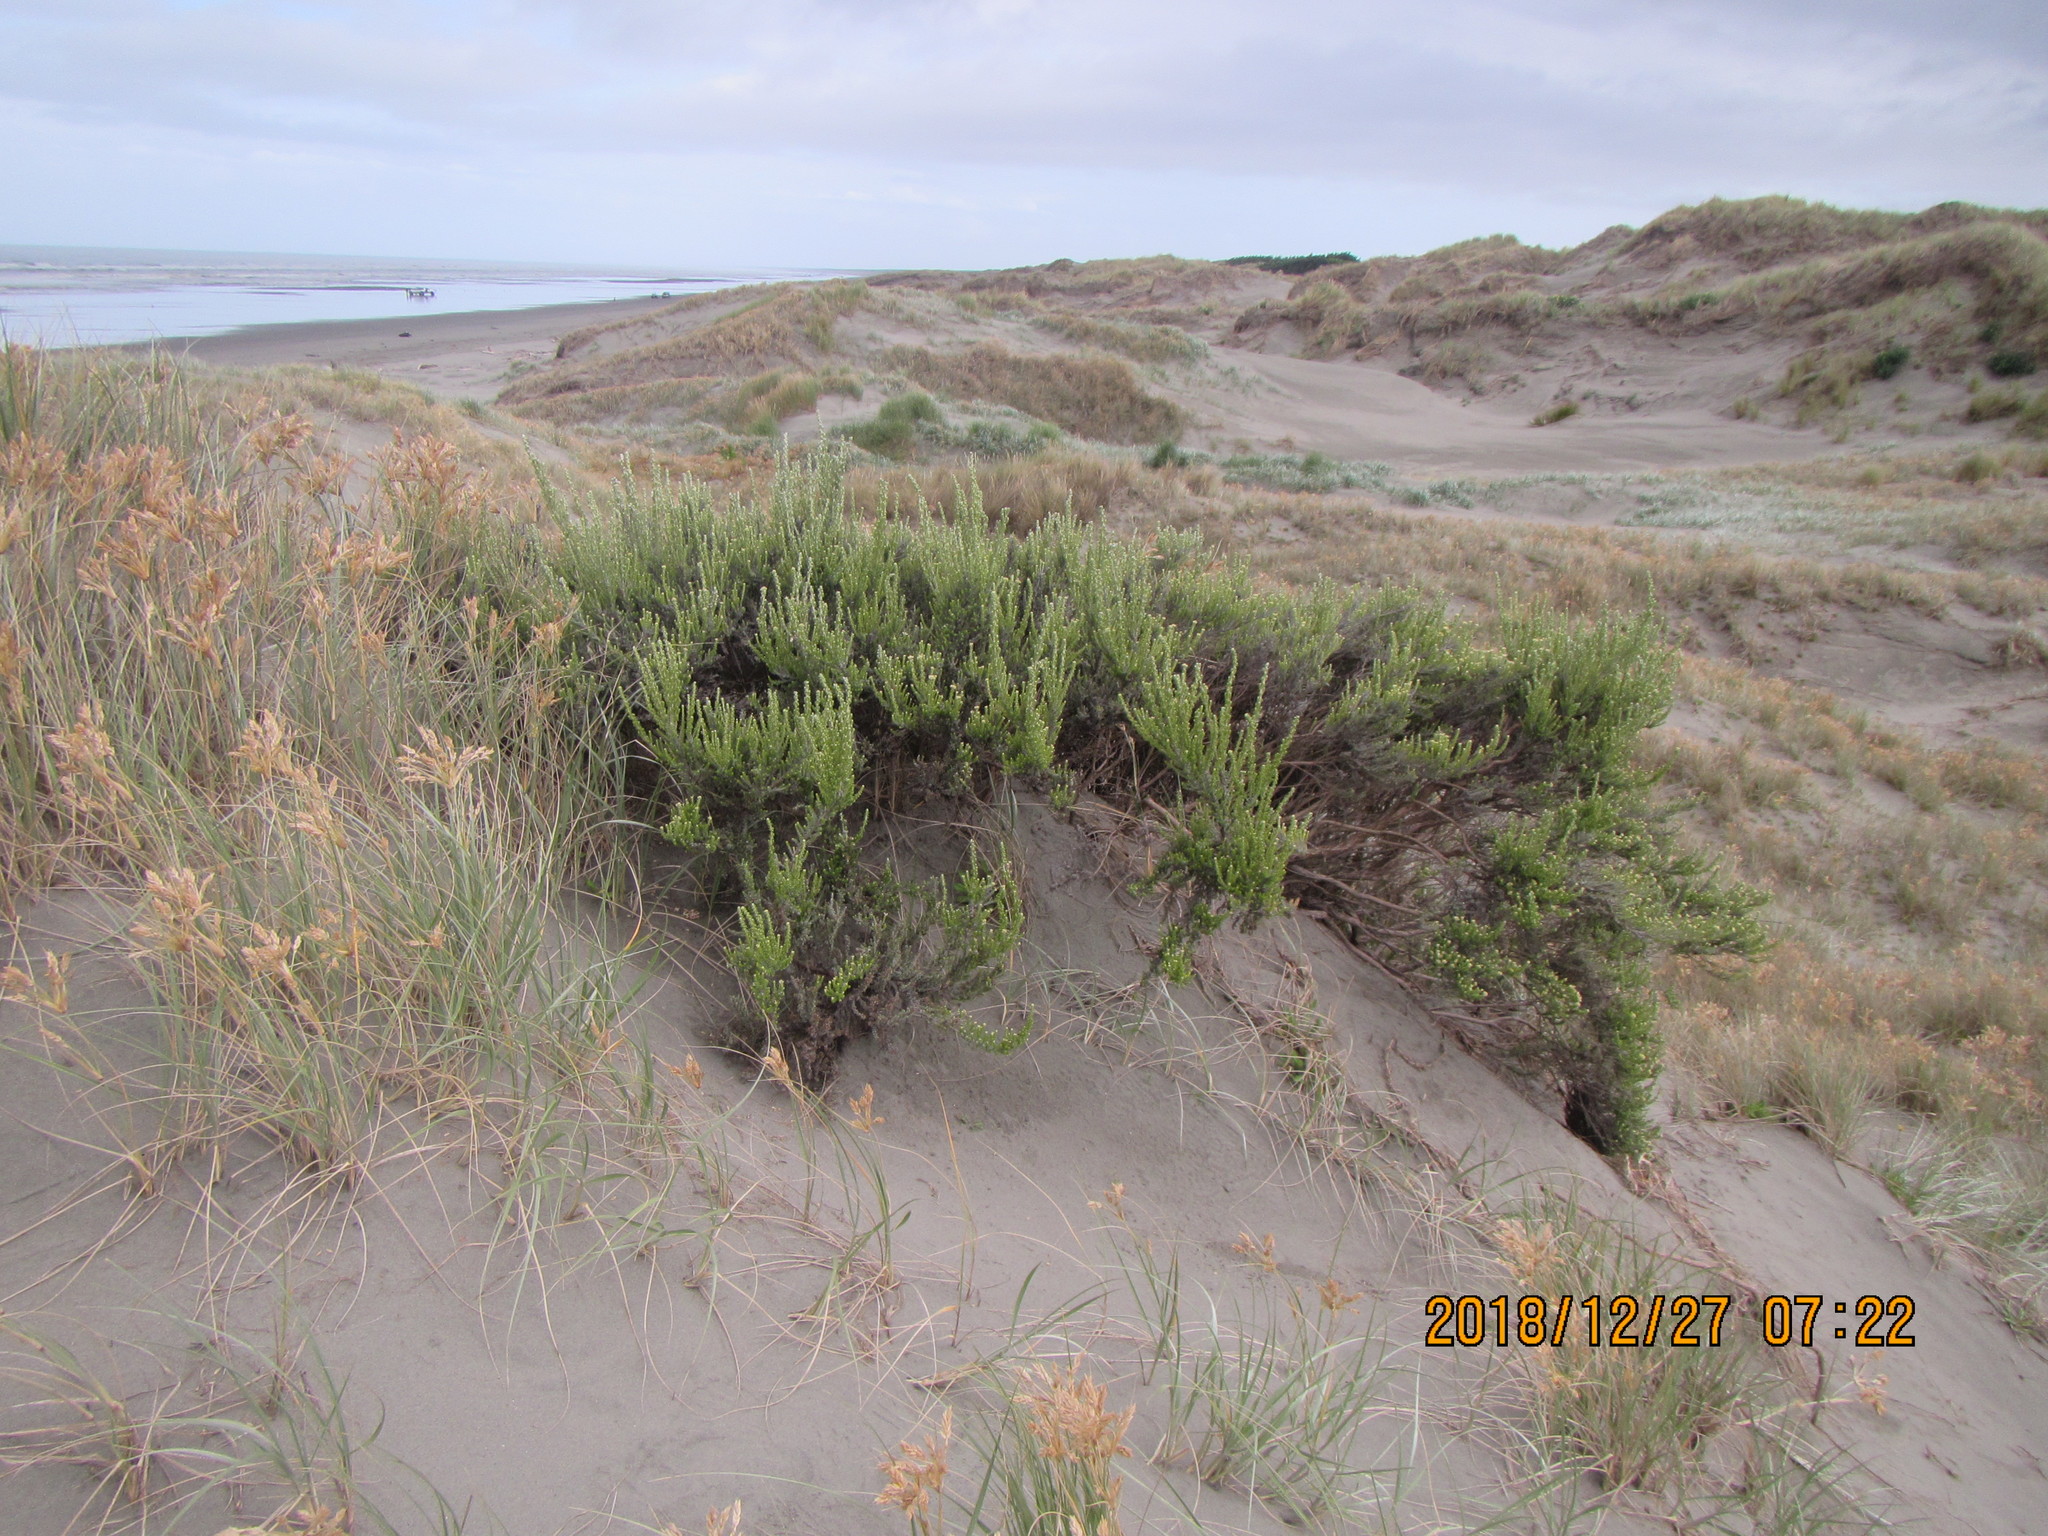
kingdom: Plantae
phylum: Tracheophyta
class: Magnoliopsida
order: Asterales
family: Asteraceae
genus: Ozothamnus
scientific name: Ozothamnus leptophyllus
